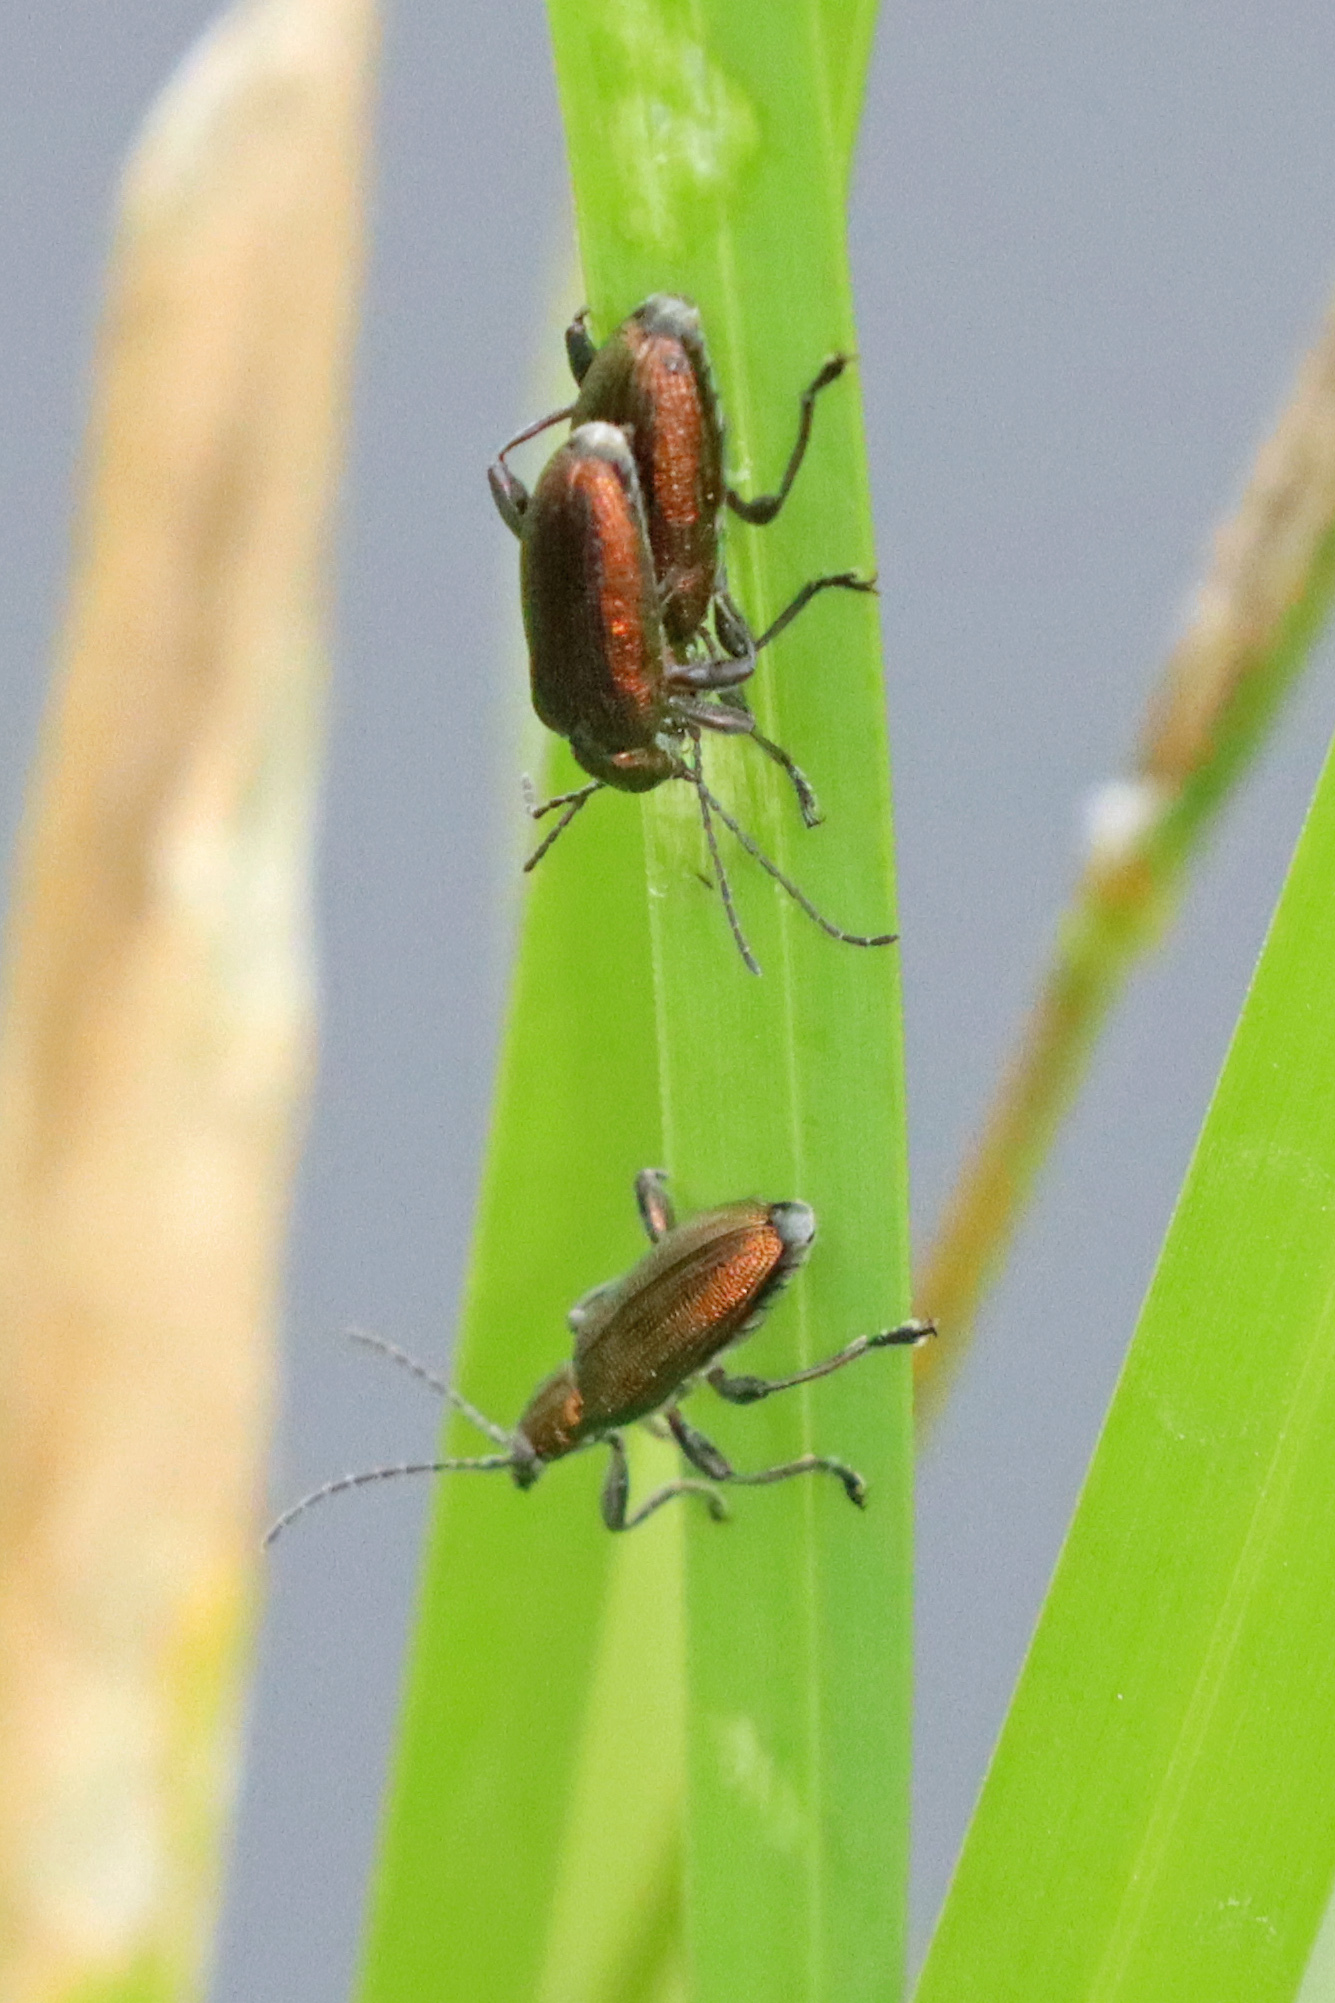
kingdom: Animalia
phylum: Arthropoda
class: Insecta
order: Coleoptera
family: Chrysomelidae
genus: Donacia
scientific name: Donacia semicuprea
